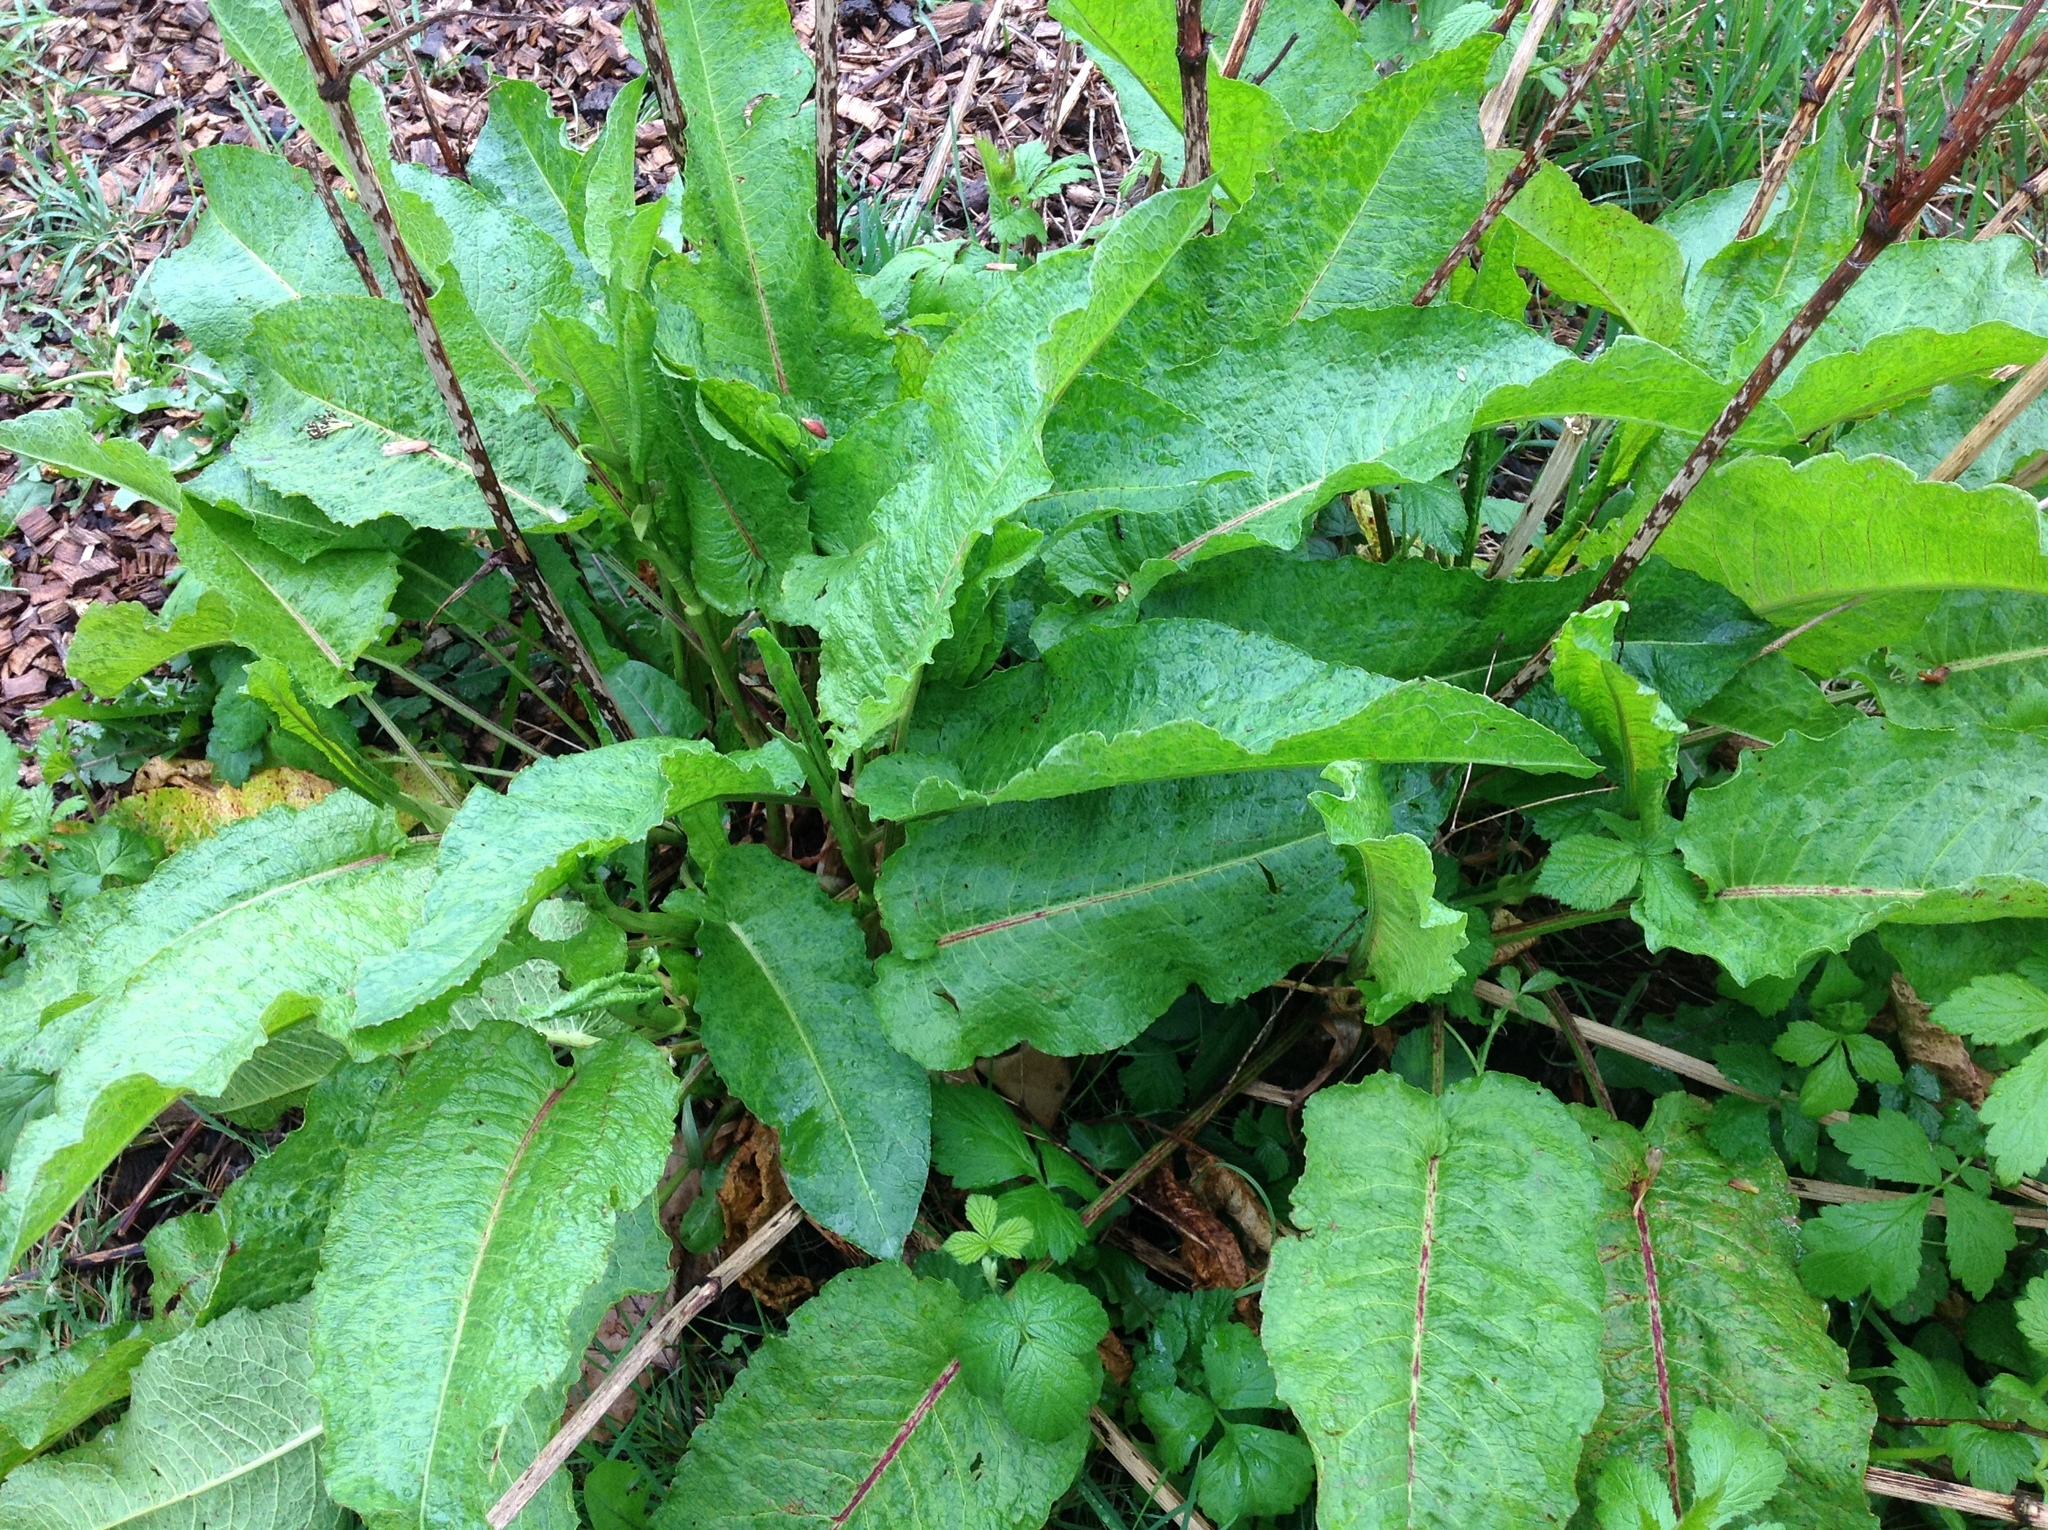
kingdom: Plantae
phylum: Tracheophyta
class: Magnoliopsida
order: Caryophyllales
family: Polygonaceae
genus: Rumex
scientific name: Rumex obtusifolius
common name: Bitter dock
